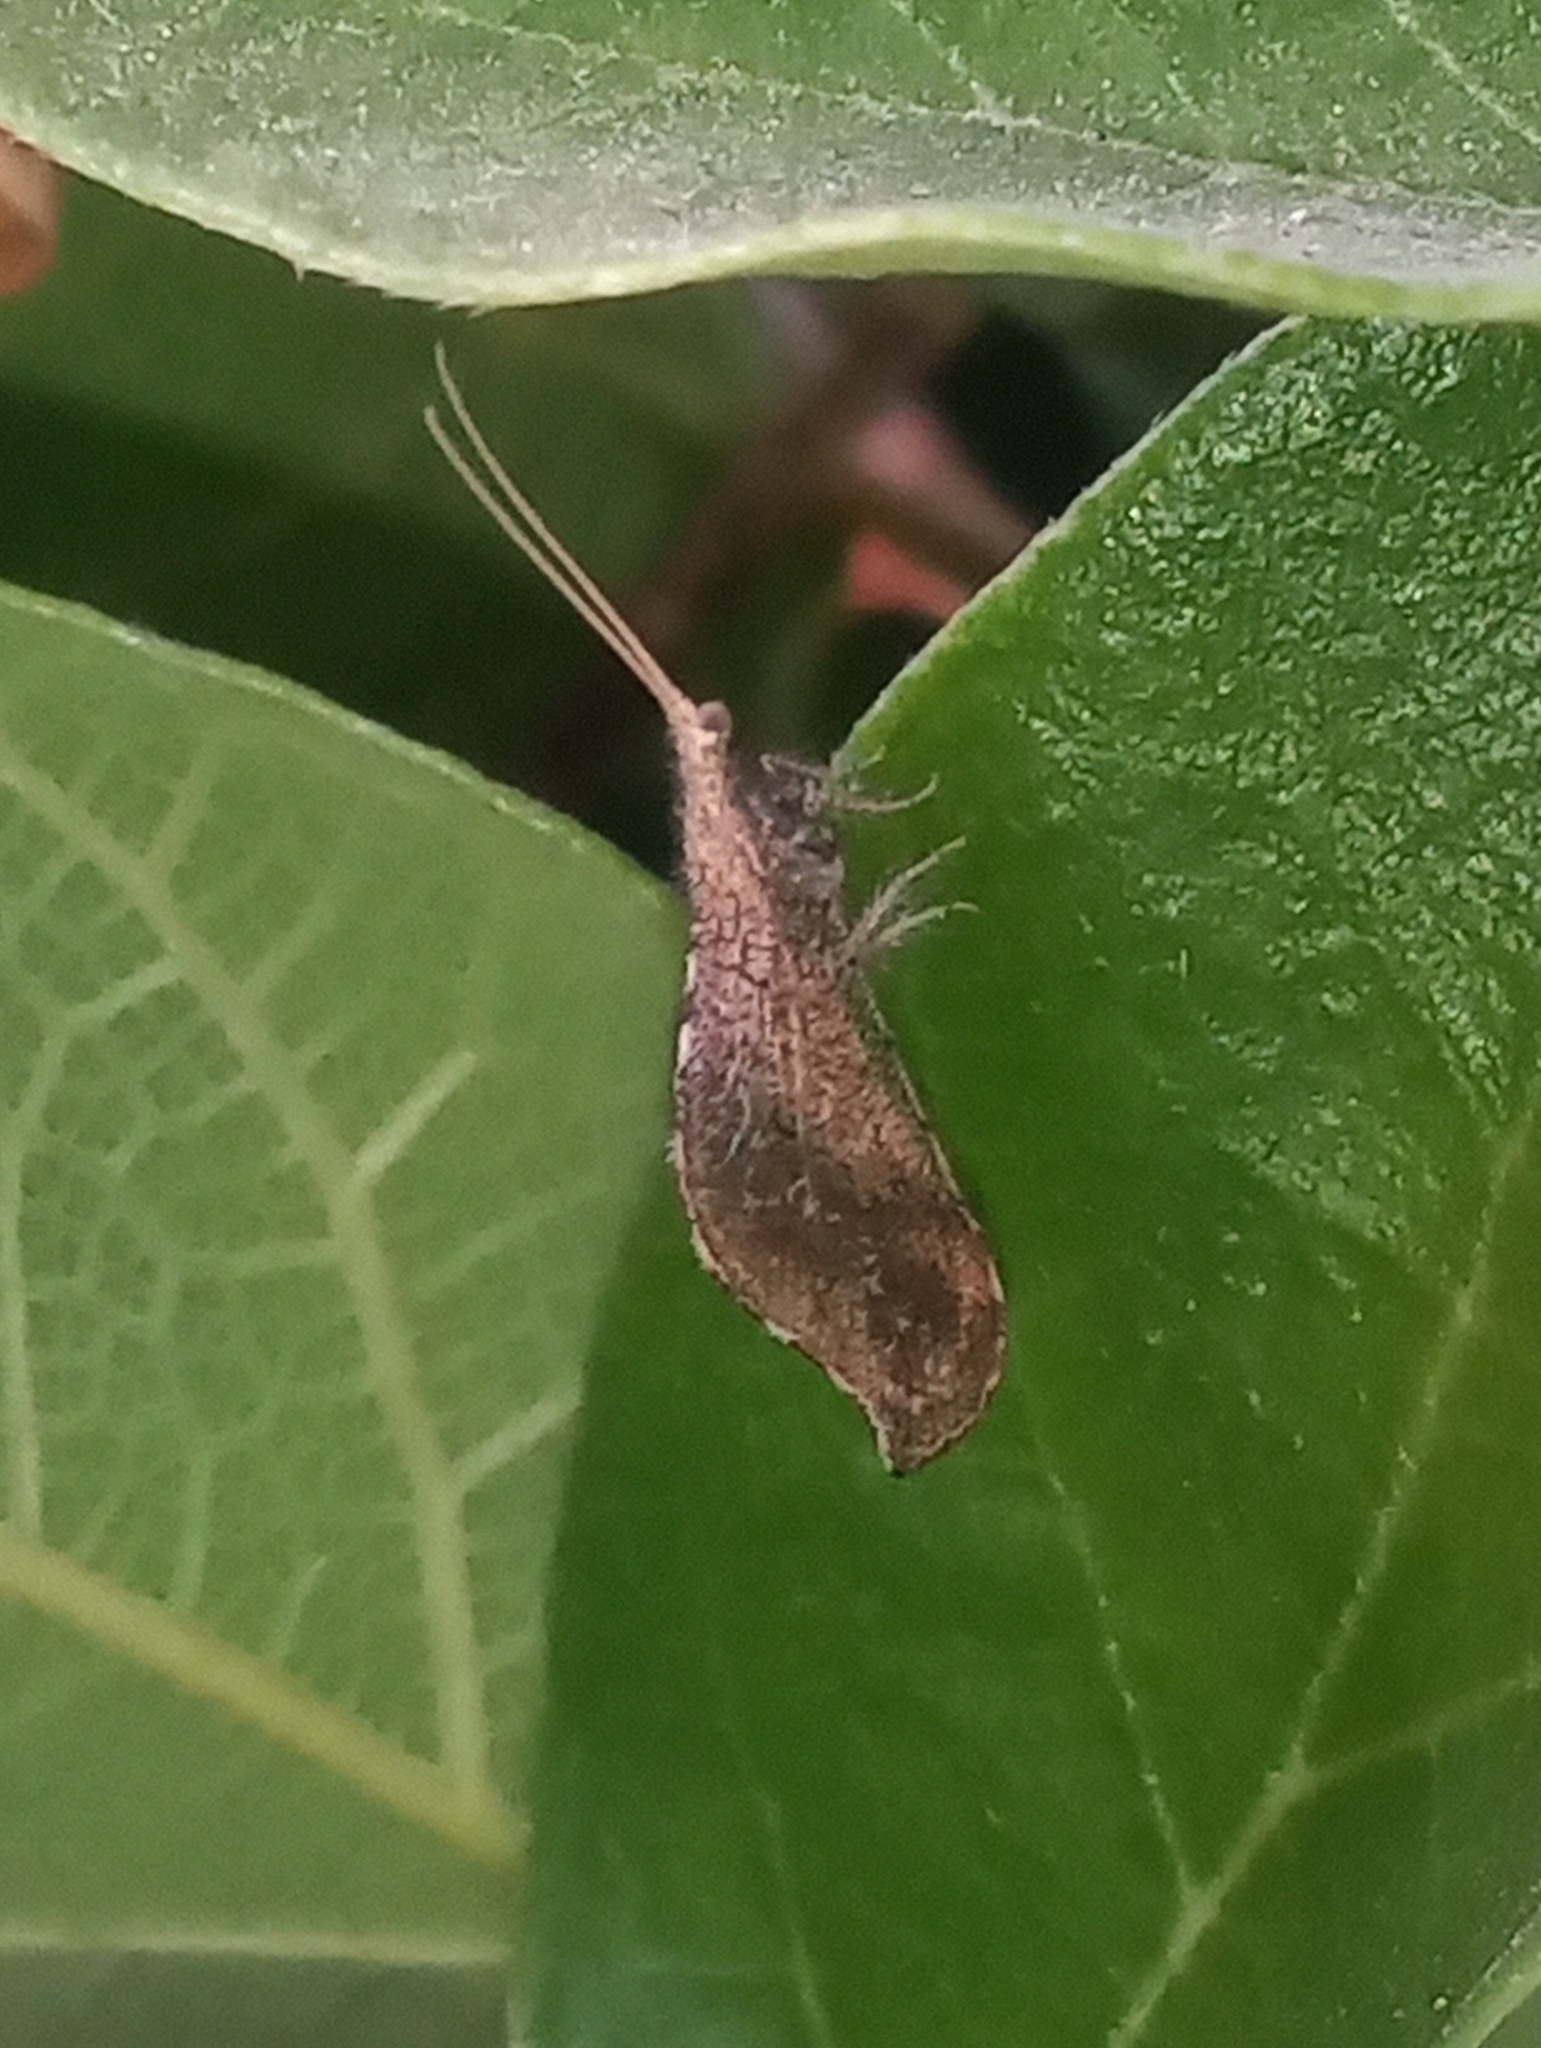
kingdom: Animalia
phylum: Arthropoda
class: Insecta
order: Neuroptera
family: Berothidae
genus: Lomamyia
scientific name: Lomamyia squamosa
